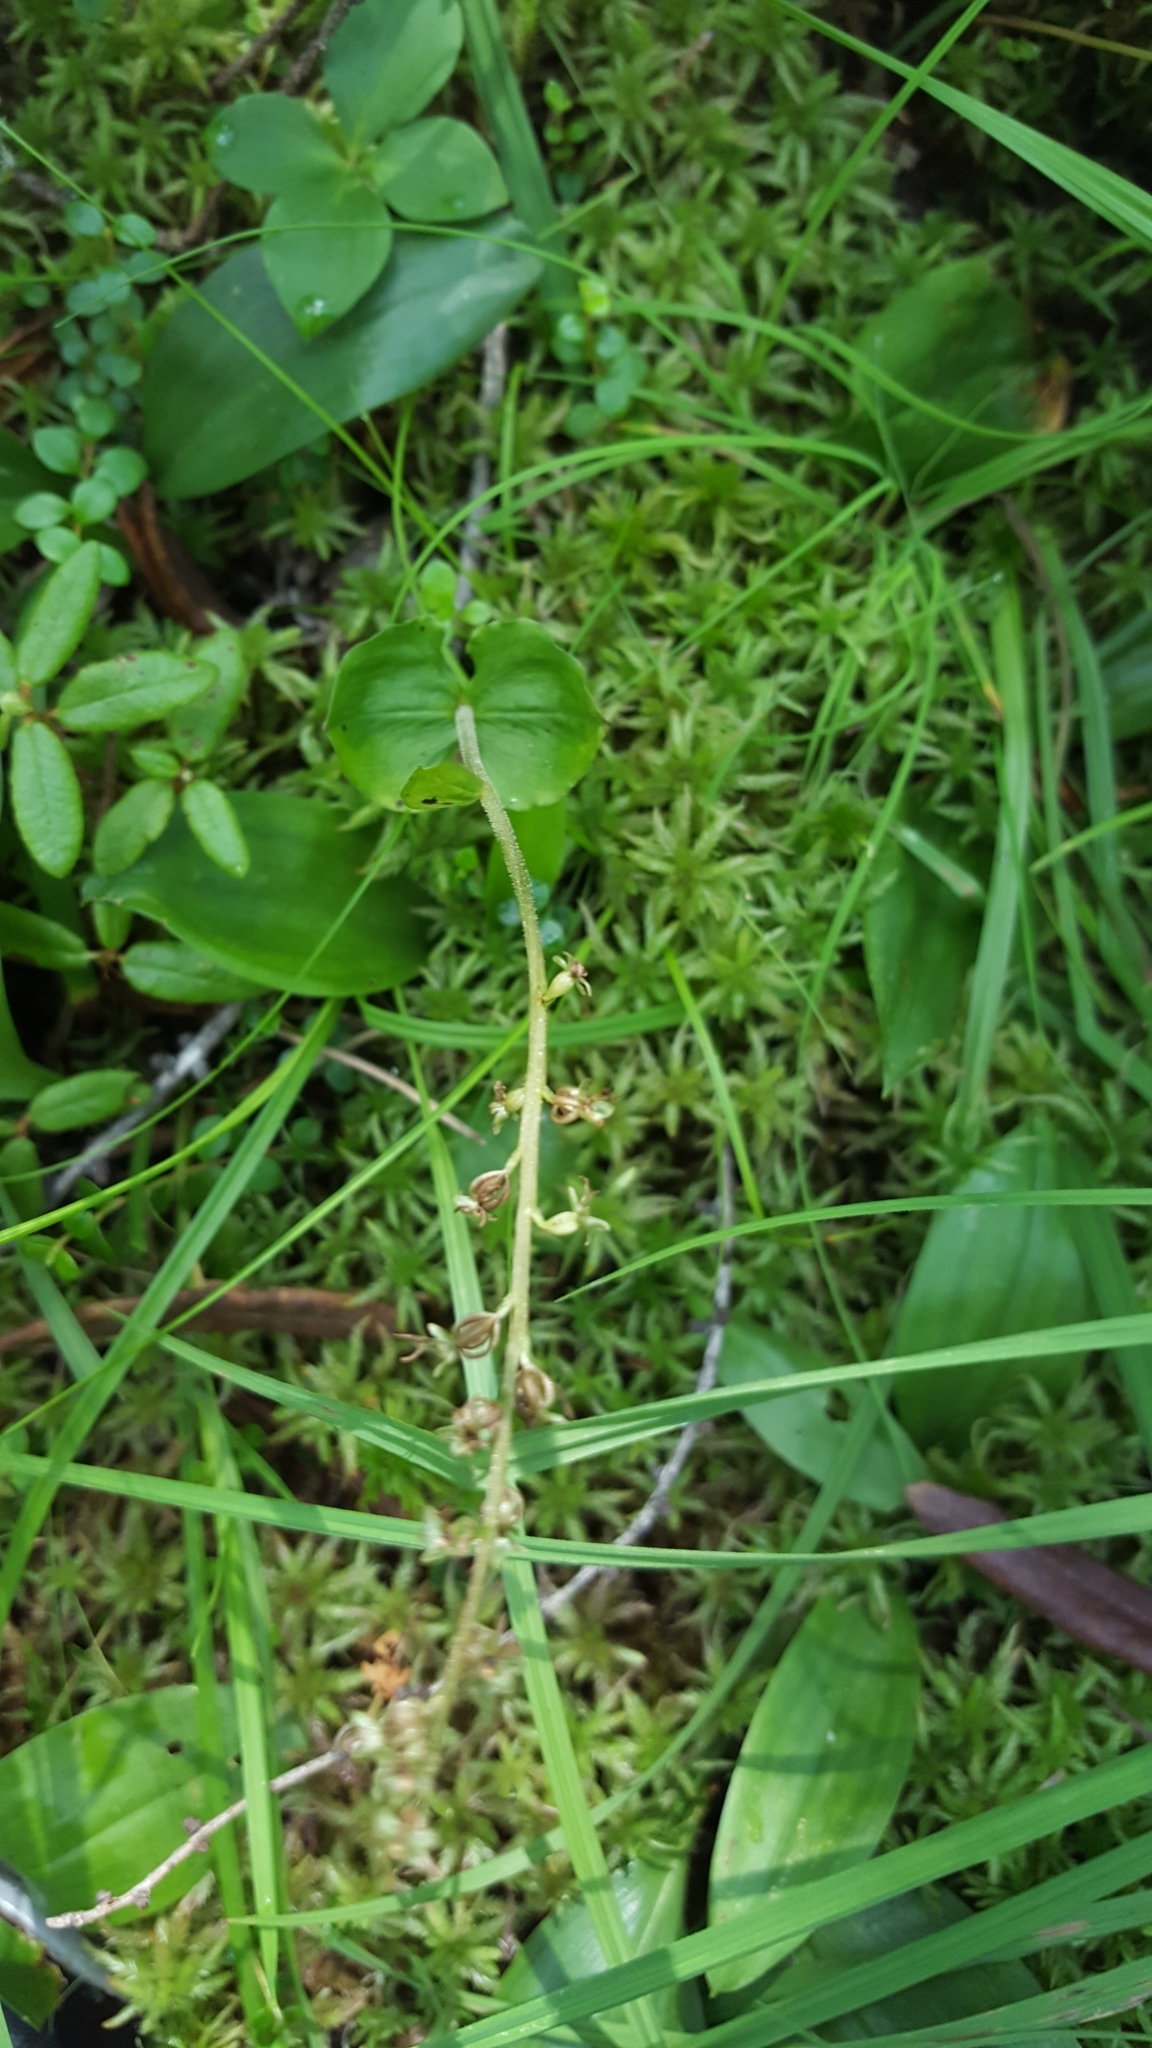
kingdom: Plantae
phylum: Tracheophyta
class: Liliopsida
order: Asparagales
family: Orchidaceae
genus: Neottia
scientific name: Neottia cordata
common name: Lesser twayblade
